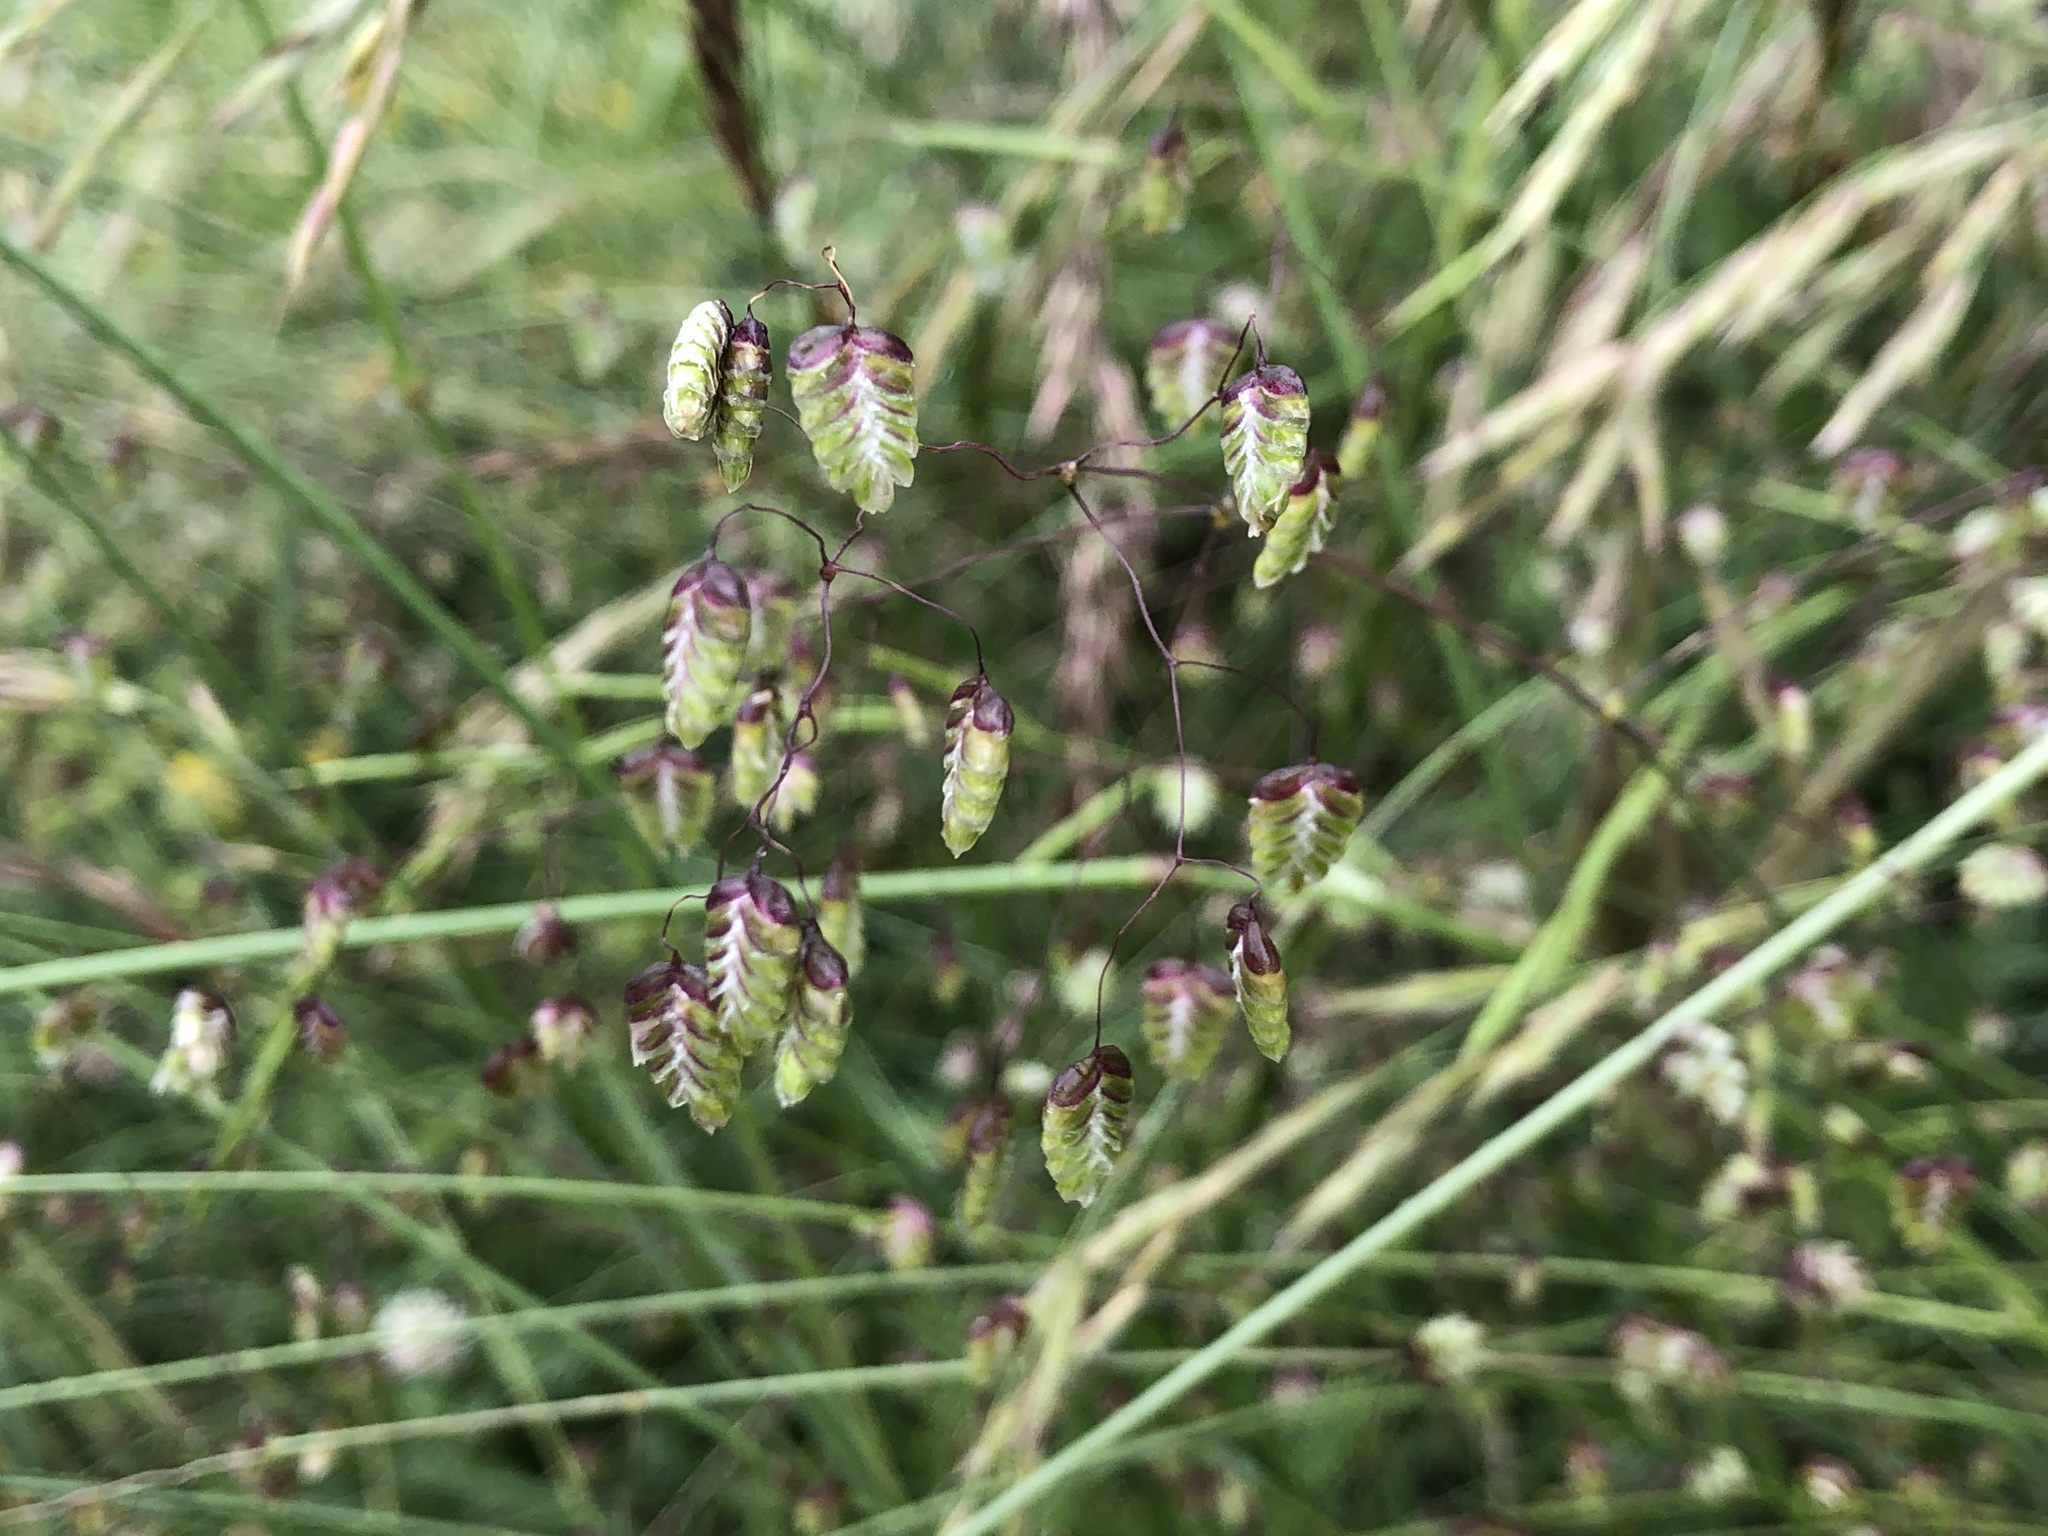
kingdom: Plantae
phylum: Tracheophyta
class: Liliopsida
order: Poales
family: Poaceae
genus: Briza
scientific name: Briza media
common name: Quaking grass
